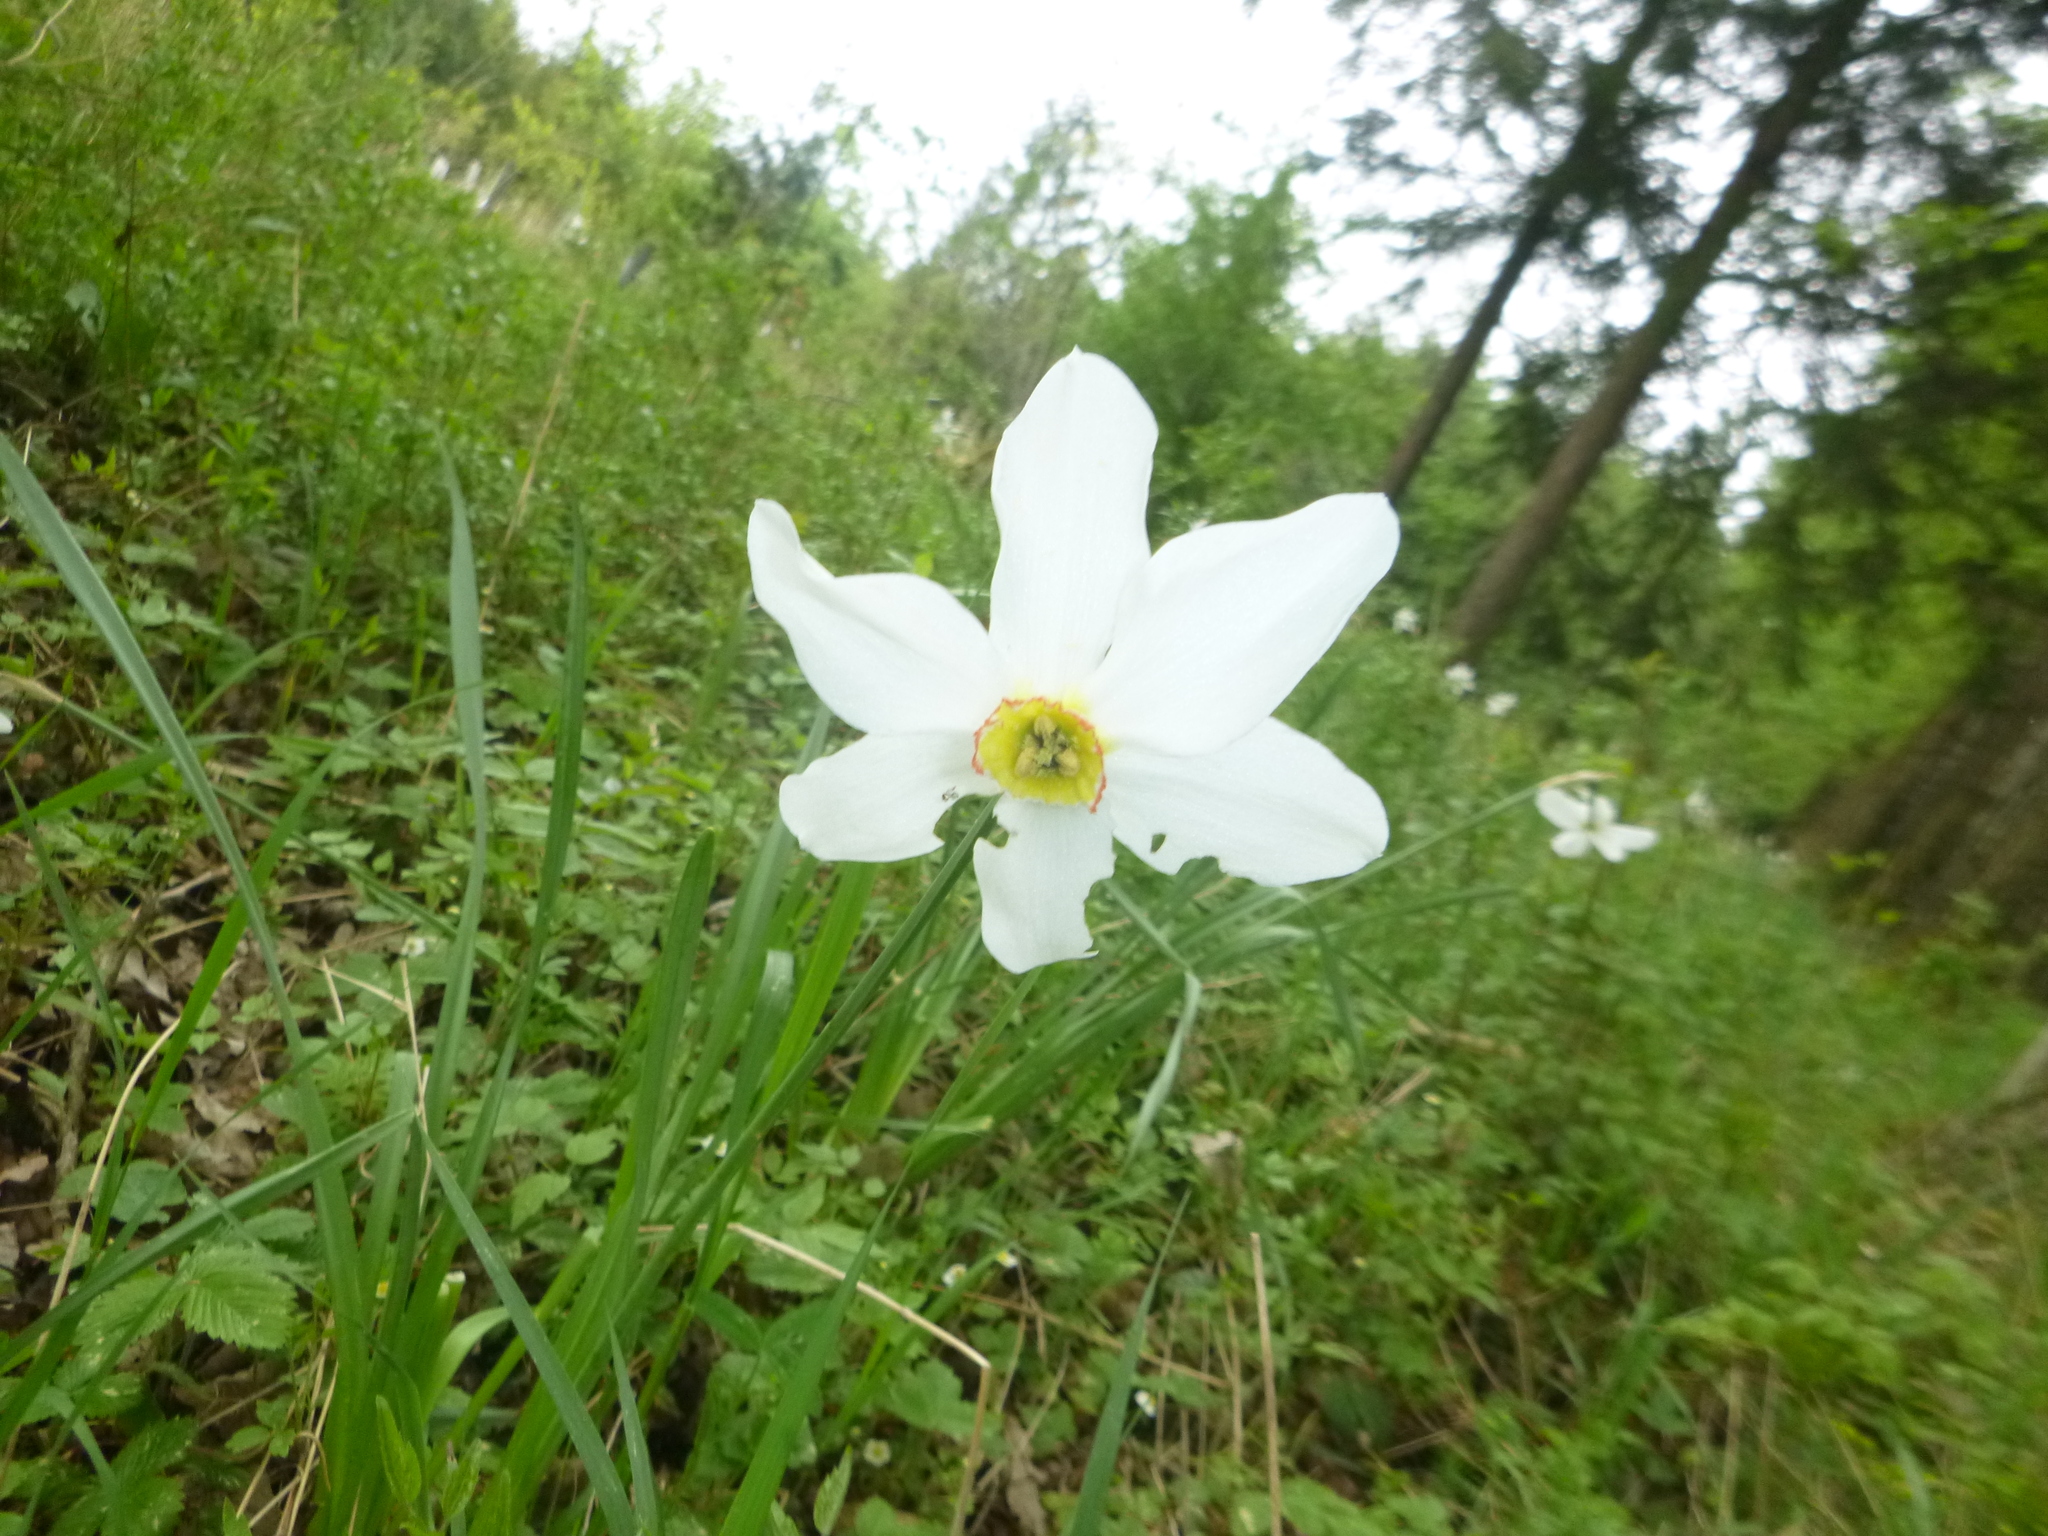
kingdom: Plantae
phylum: Tracheophyta
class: Liliopsida
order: Asparagales
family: Amaryllidaceae
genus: Narcissus
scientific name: Narcissus poeticus
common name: Pheasant's-eye daffodil
